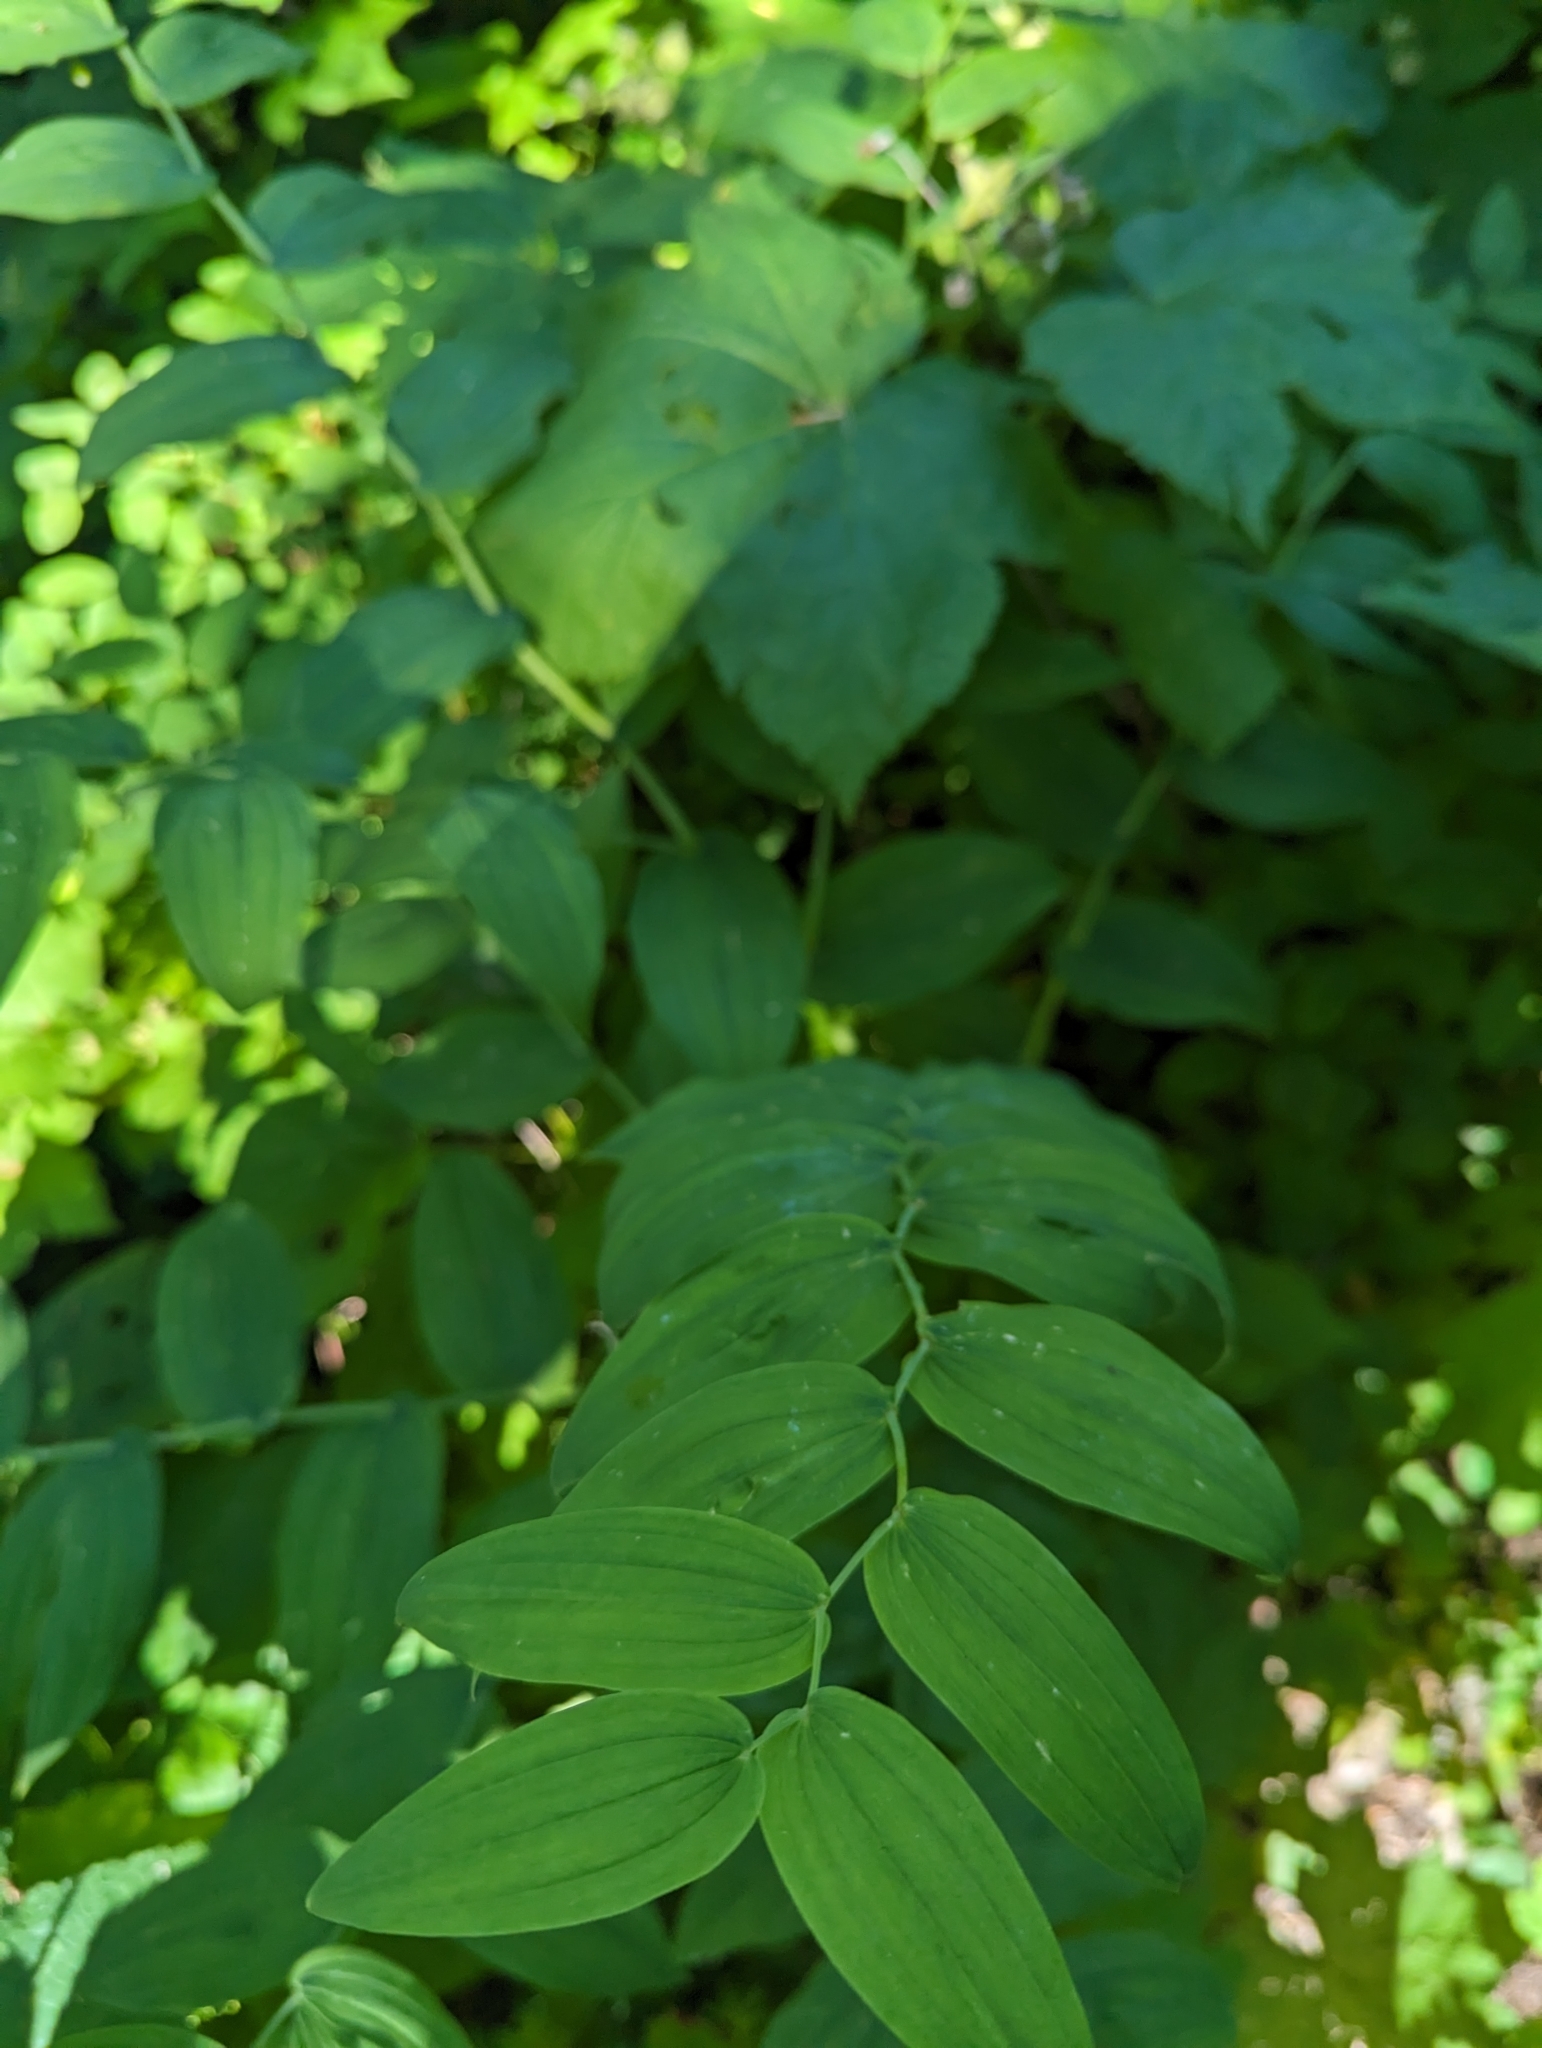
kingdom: Plantae
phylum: Tracheophyta
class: Liliopsida
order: Liliales
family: Liliaceae
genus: Streptopus
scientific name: Streptopus amplexifolius
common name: Clasp twisted stalk
